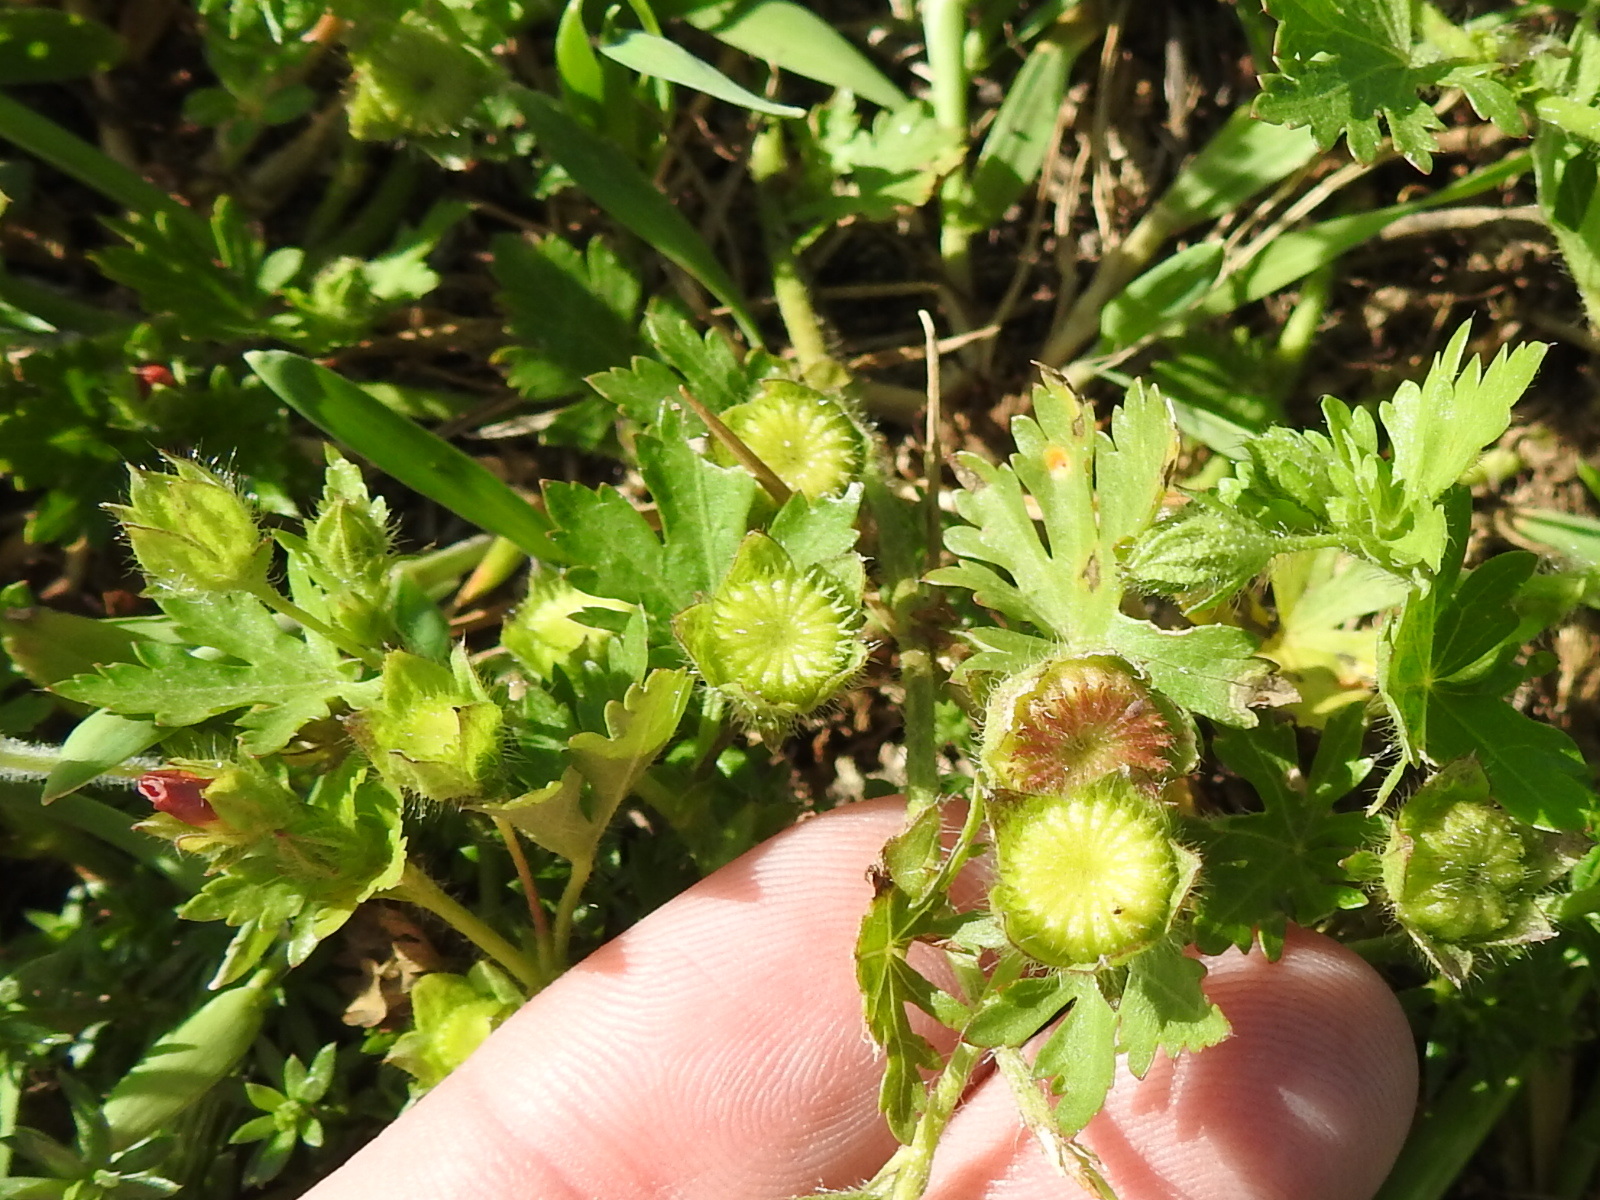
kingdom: Plantae
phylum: Tracheophyta
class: Magnoliopsida
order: Malvales
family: Malvaceae
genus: Modiola
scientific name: Modiola caroliniana
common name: Carolina bristlemallow
